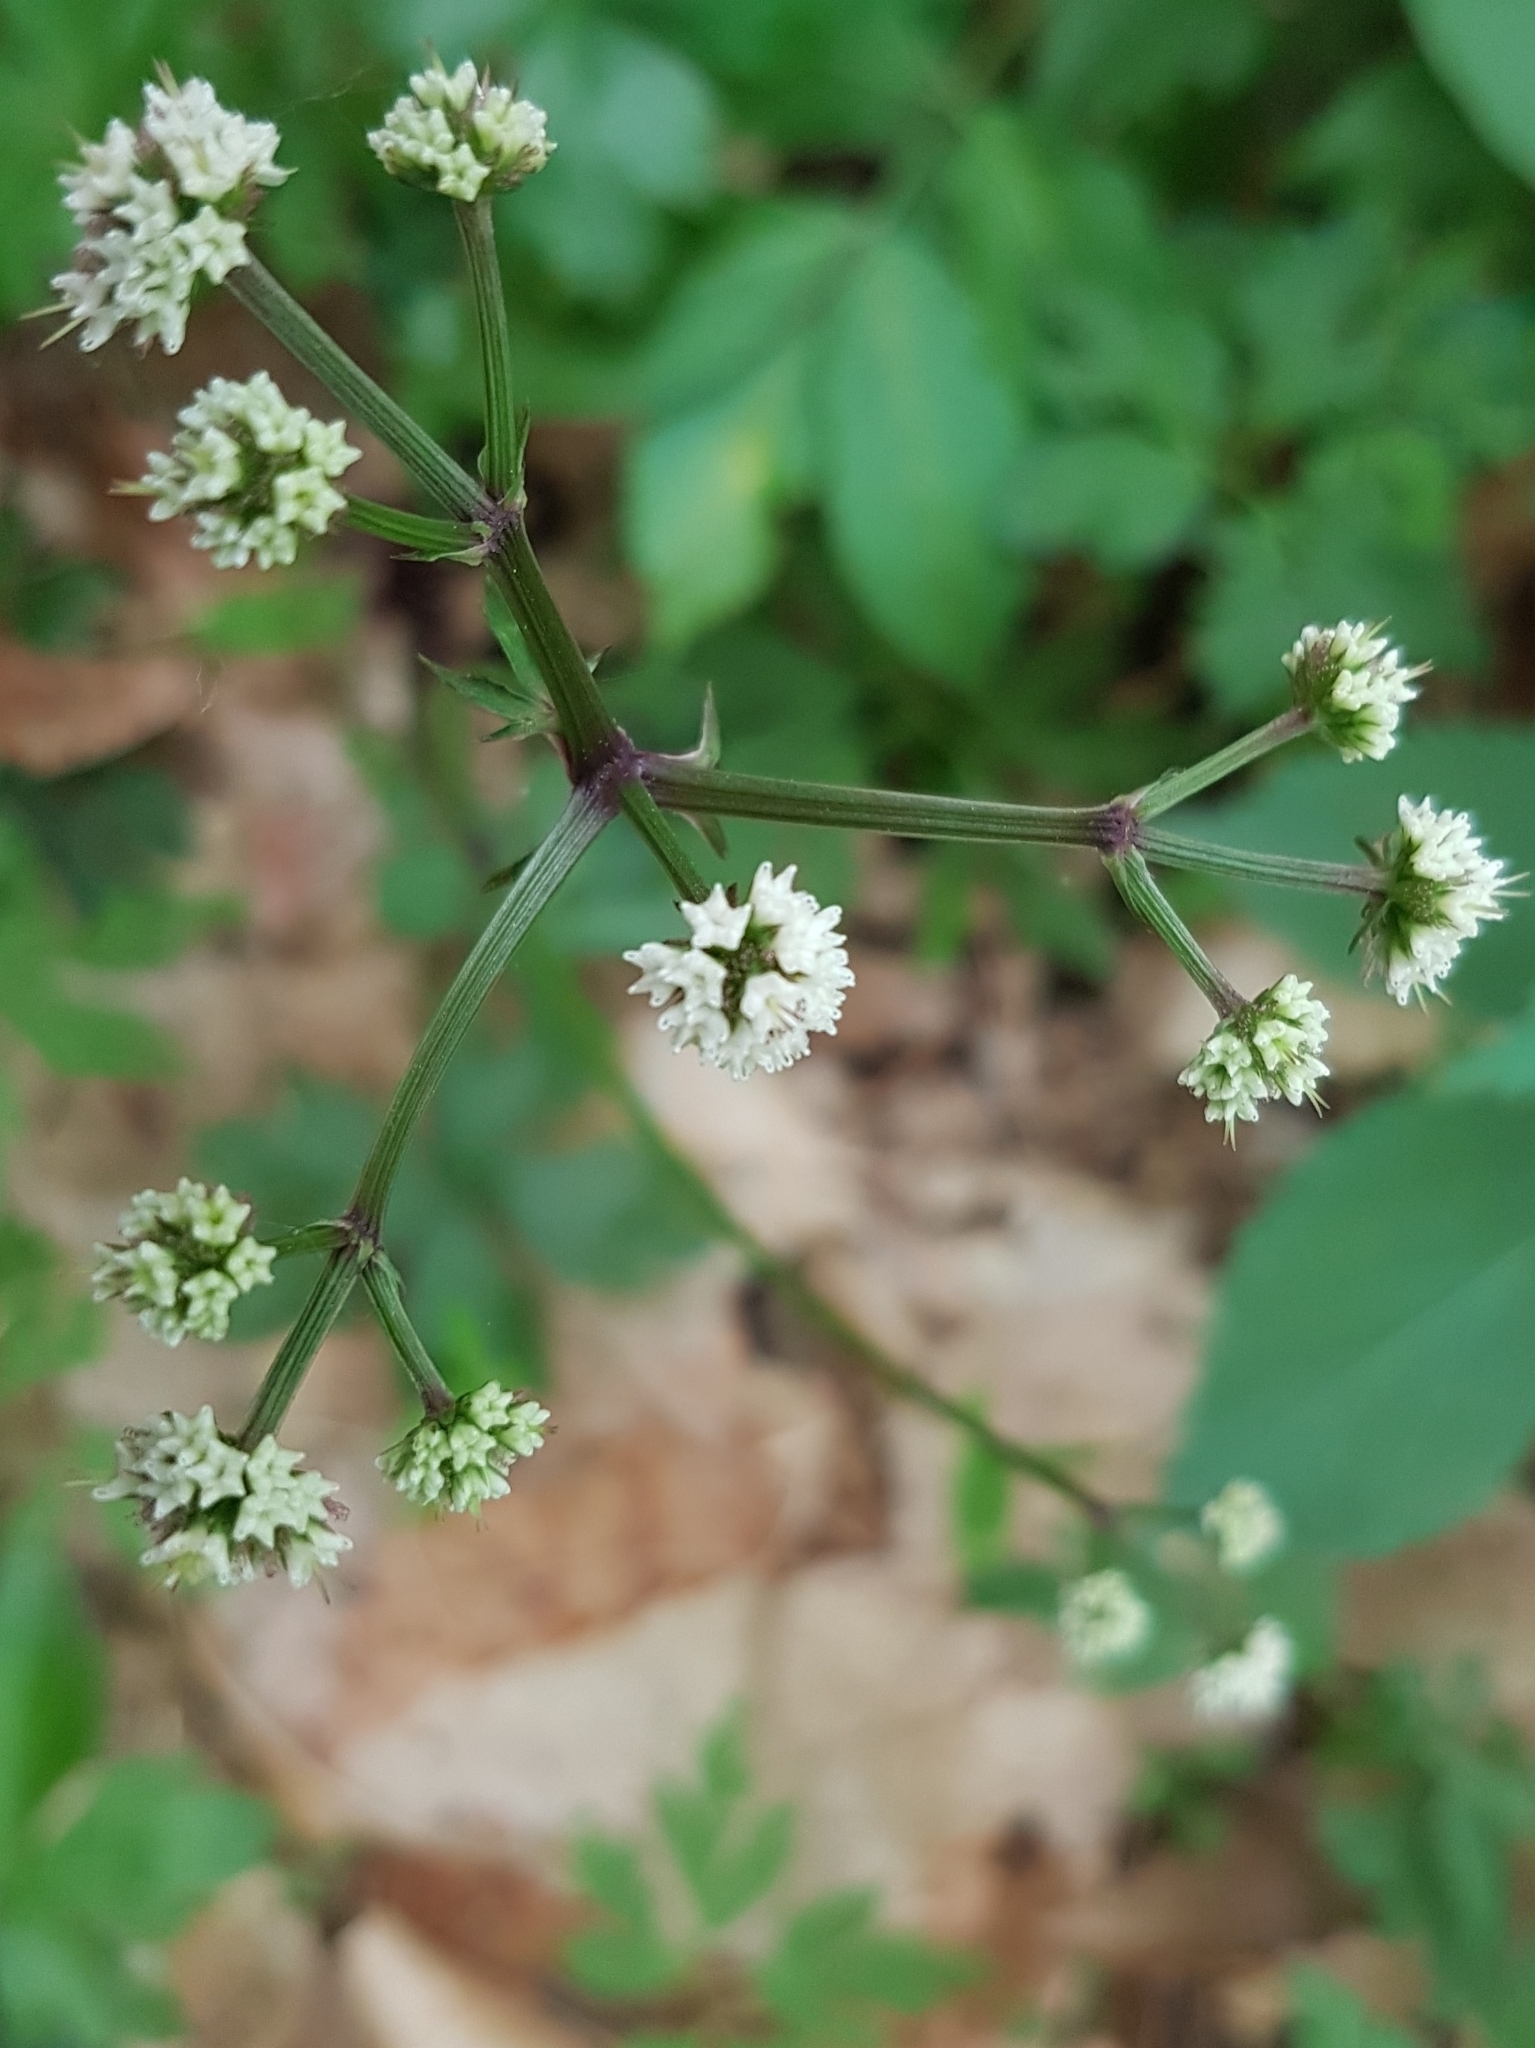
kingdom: Plantae
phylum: Tracheophyta
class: Magnoliopsida
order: Apiales
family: Apiaceae
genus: Sanicula
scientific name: Sanicula europaea
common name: Sanicle
